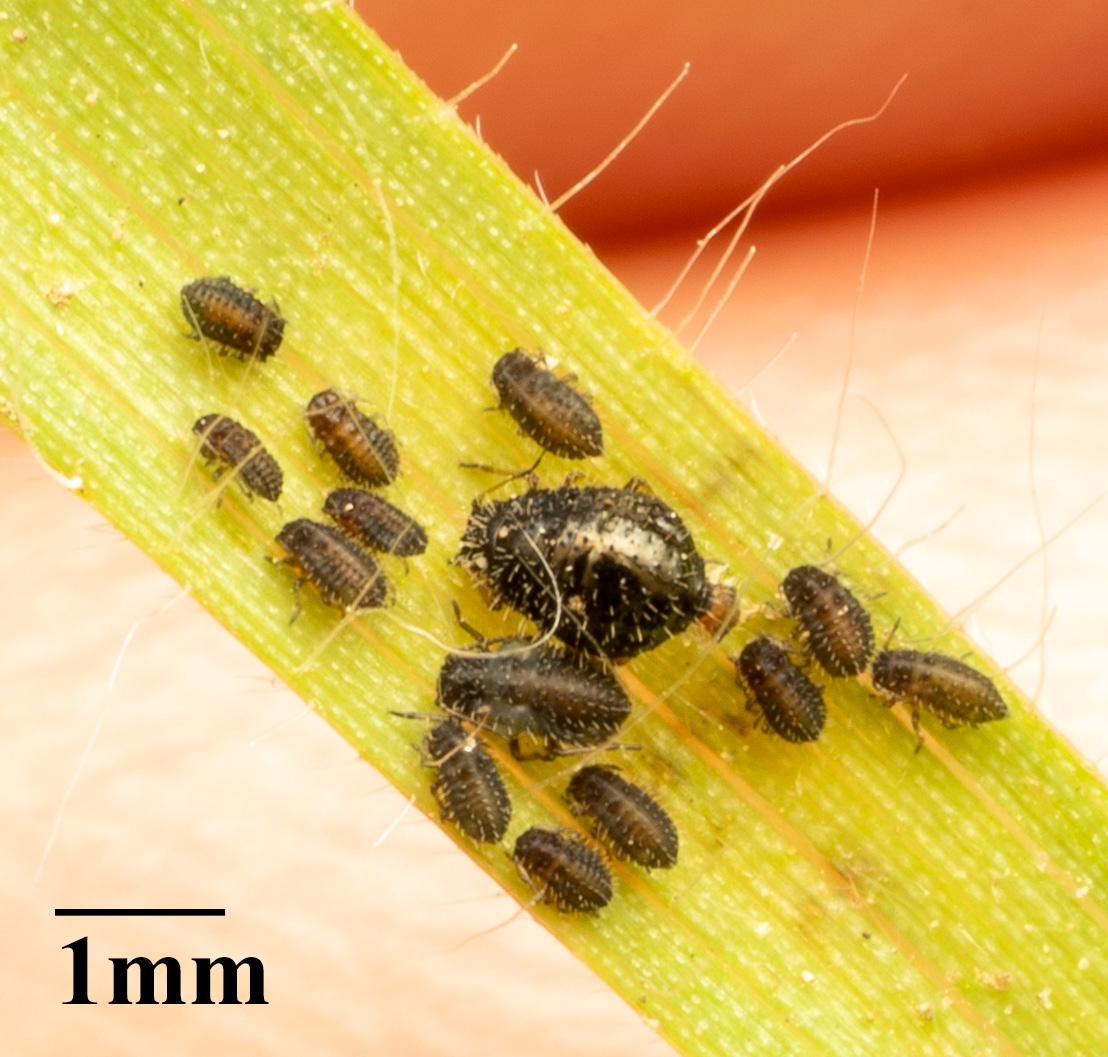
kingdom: Animalia
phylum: Arthropoda
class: Insecta
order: Hemiptera
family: Aphididae
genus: Sipha
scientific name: Sipha maydis
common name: Aphid
